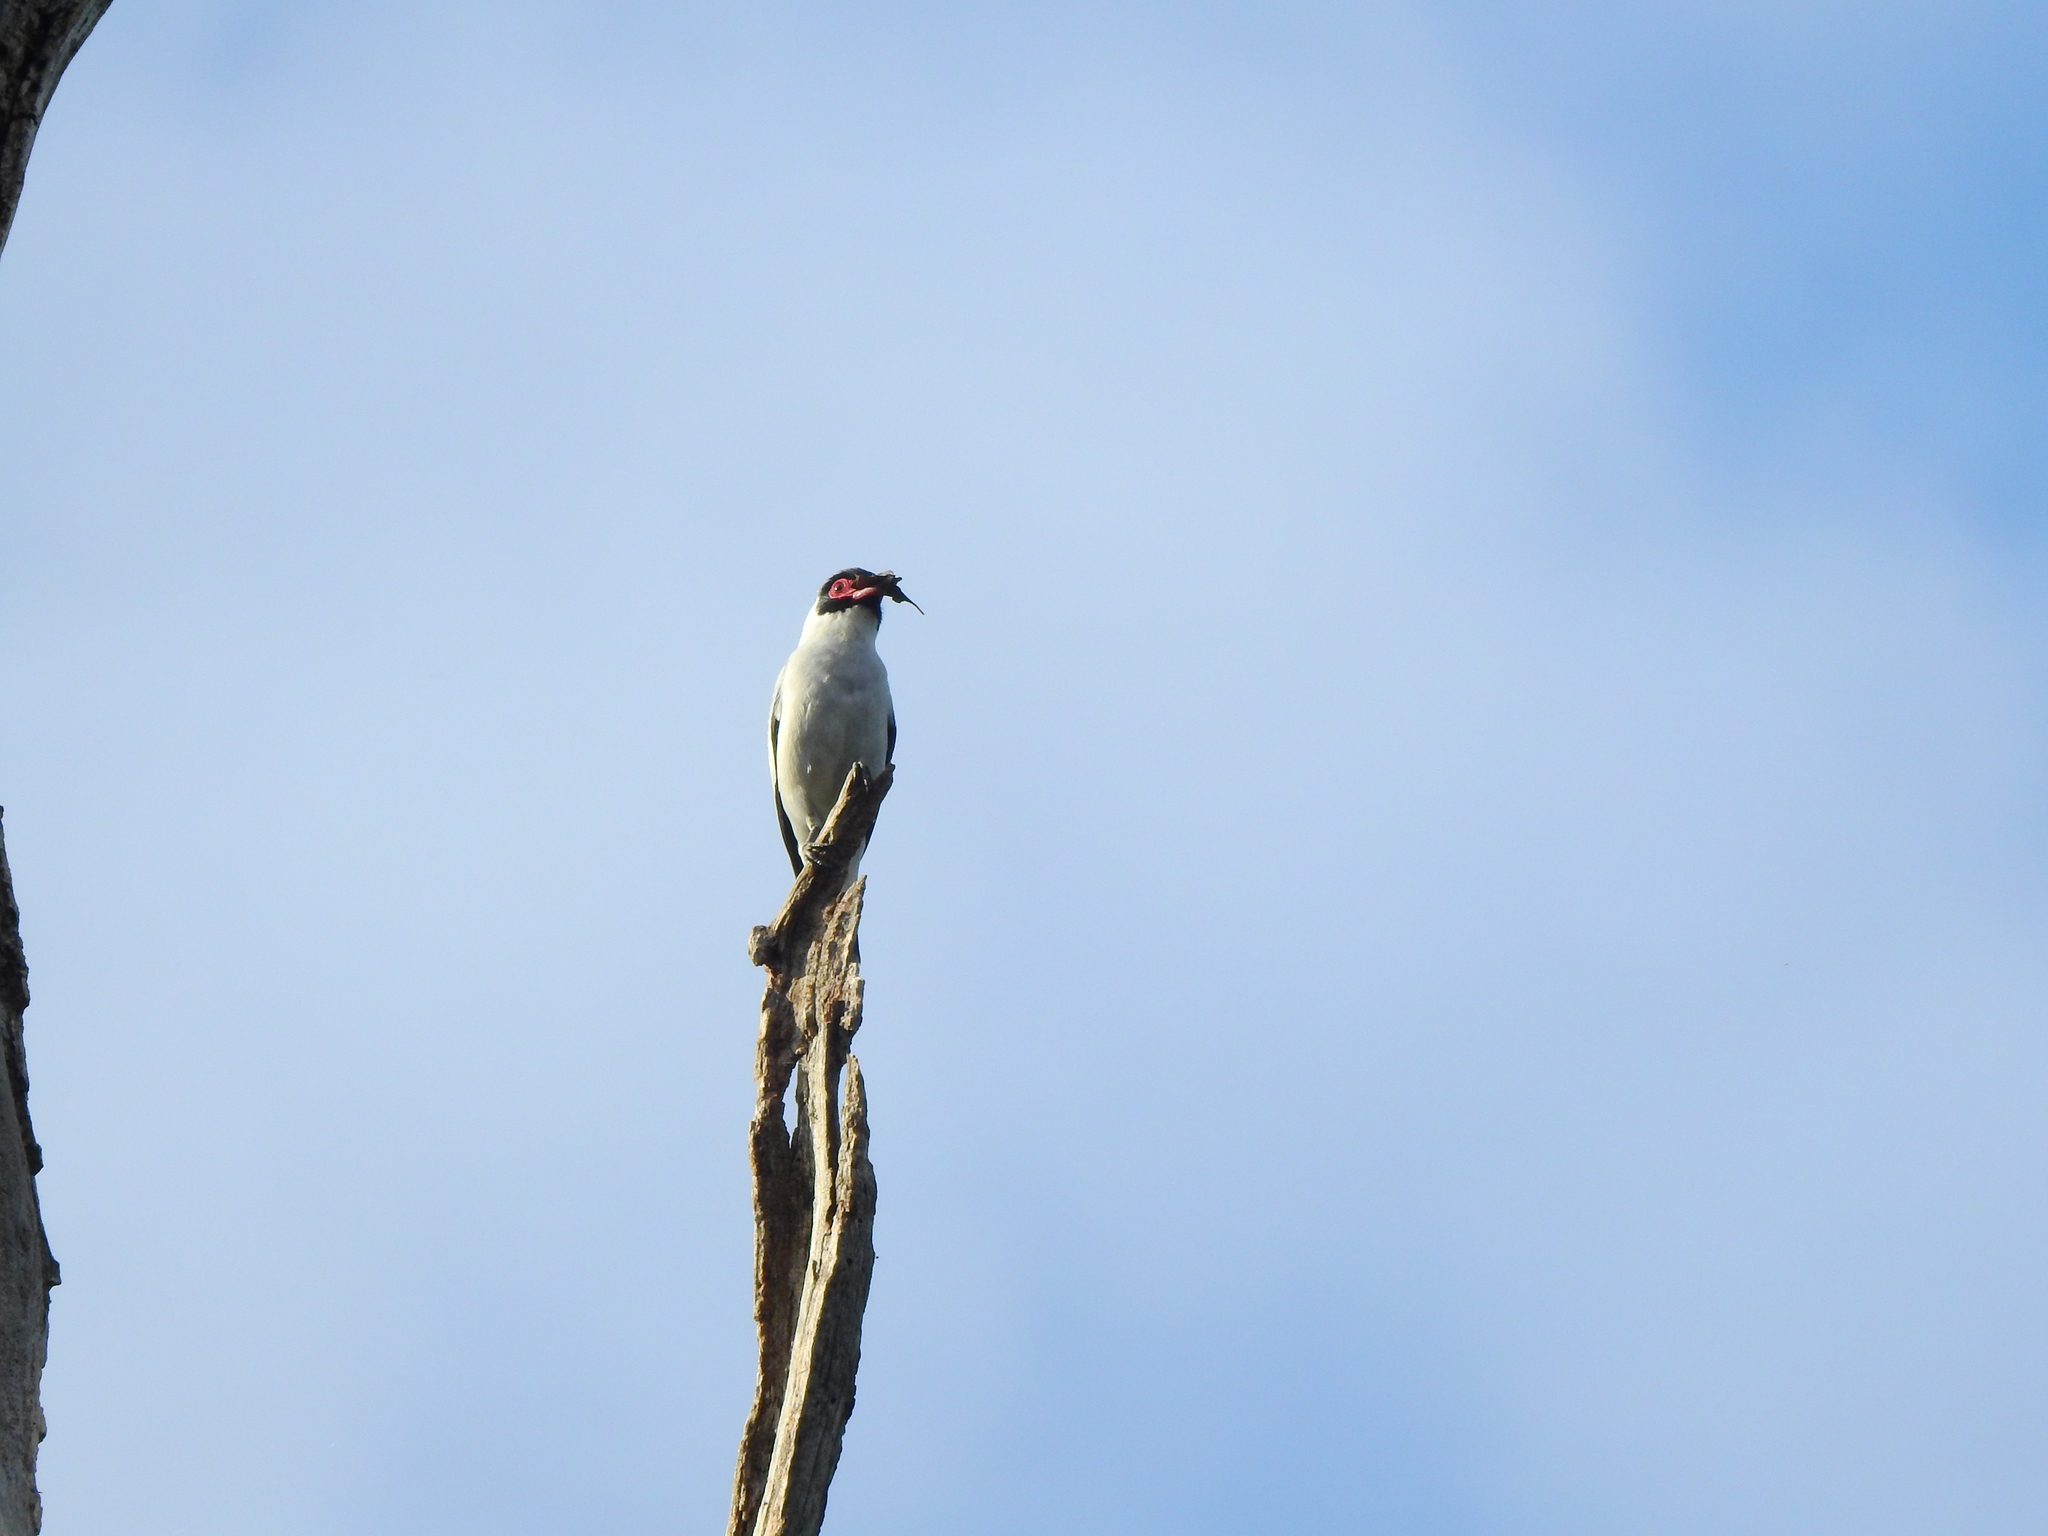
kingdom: Animalia
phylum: Chordata
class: Aves
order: Passeriformes
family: Cotingidae
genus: Tityra
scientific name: Tityra semifasciata
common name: Masked tityra
